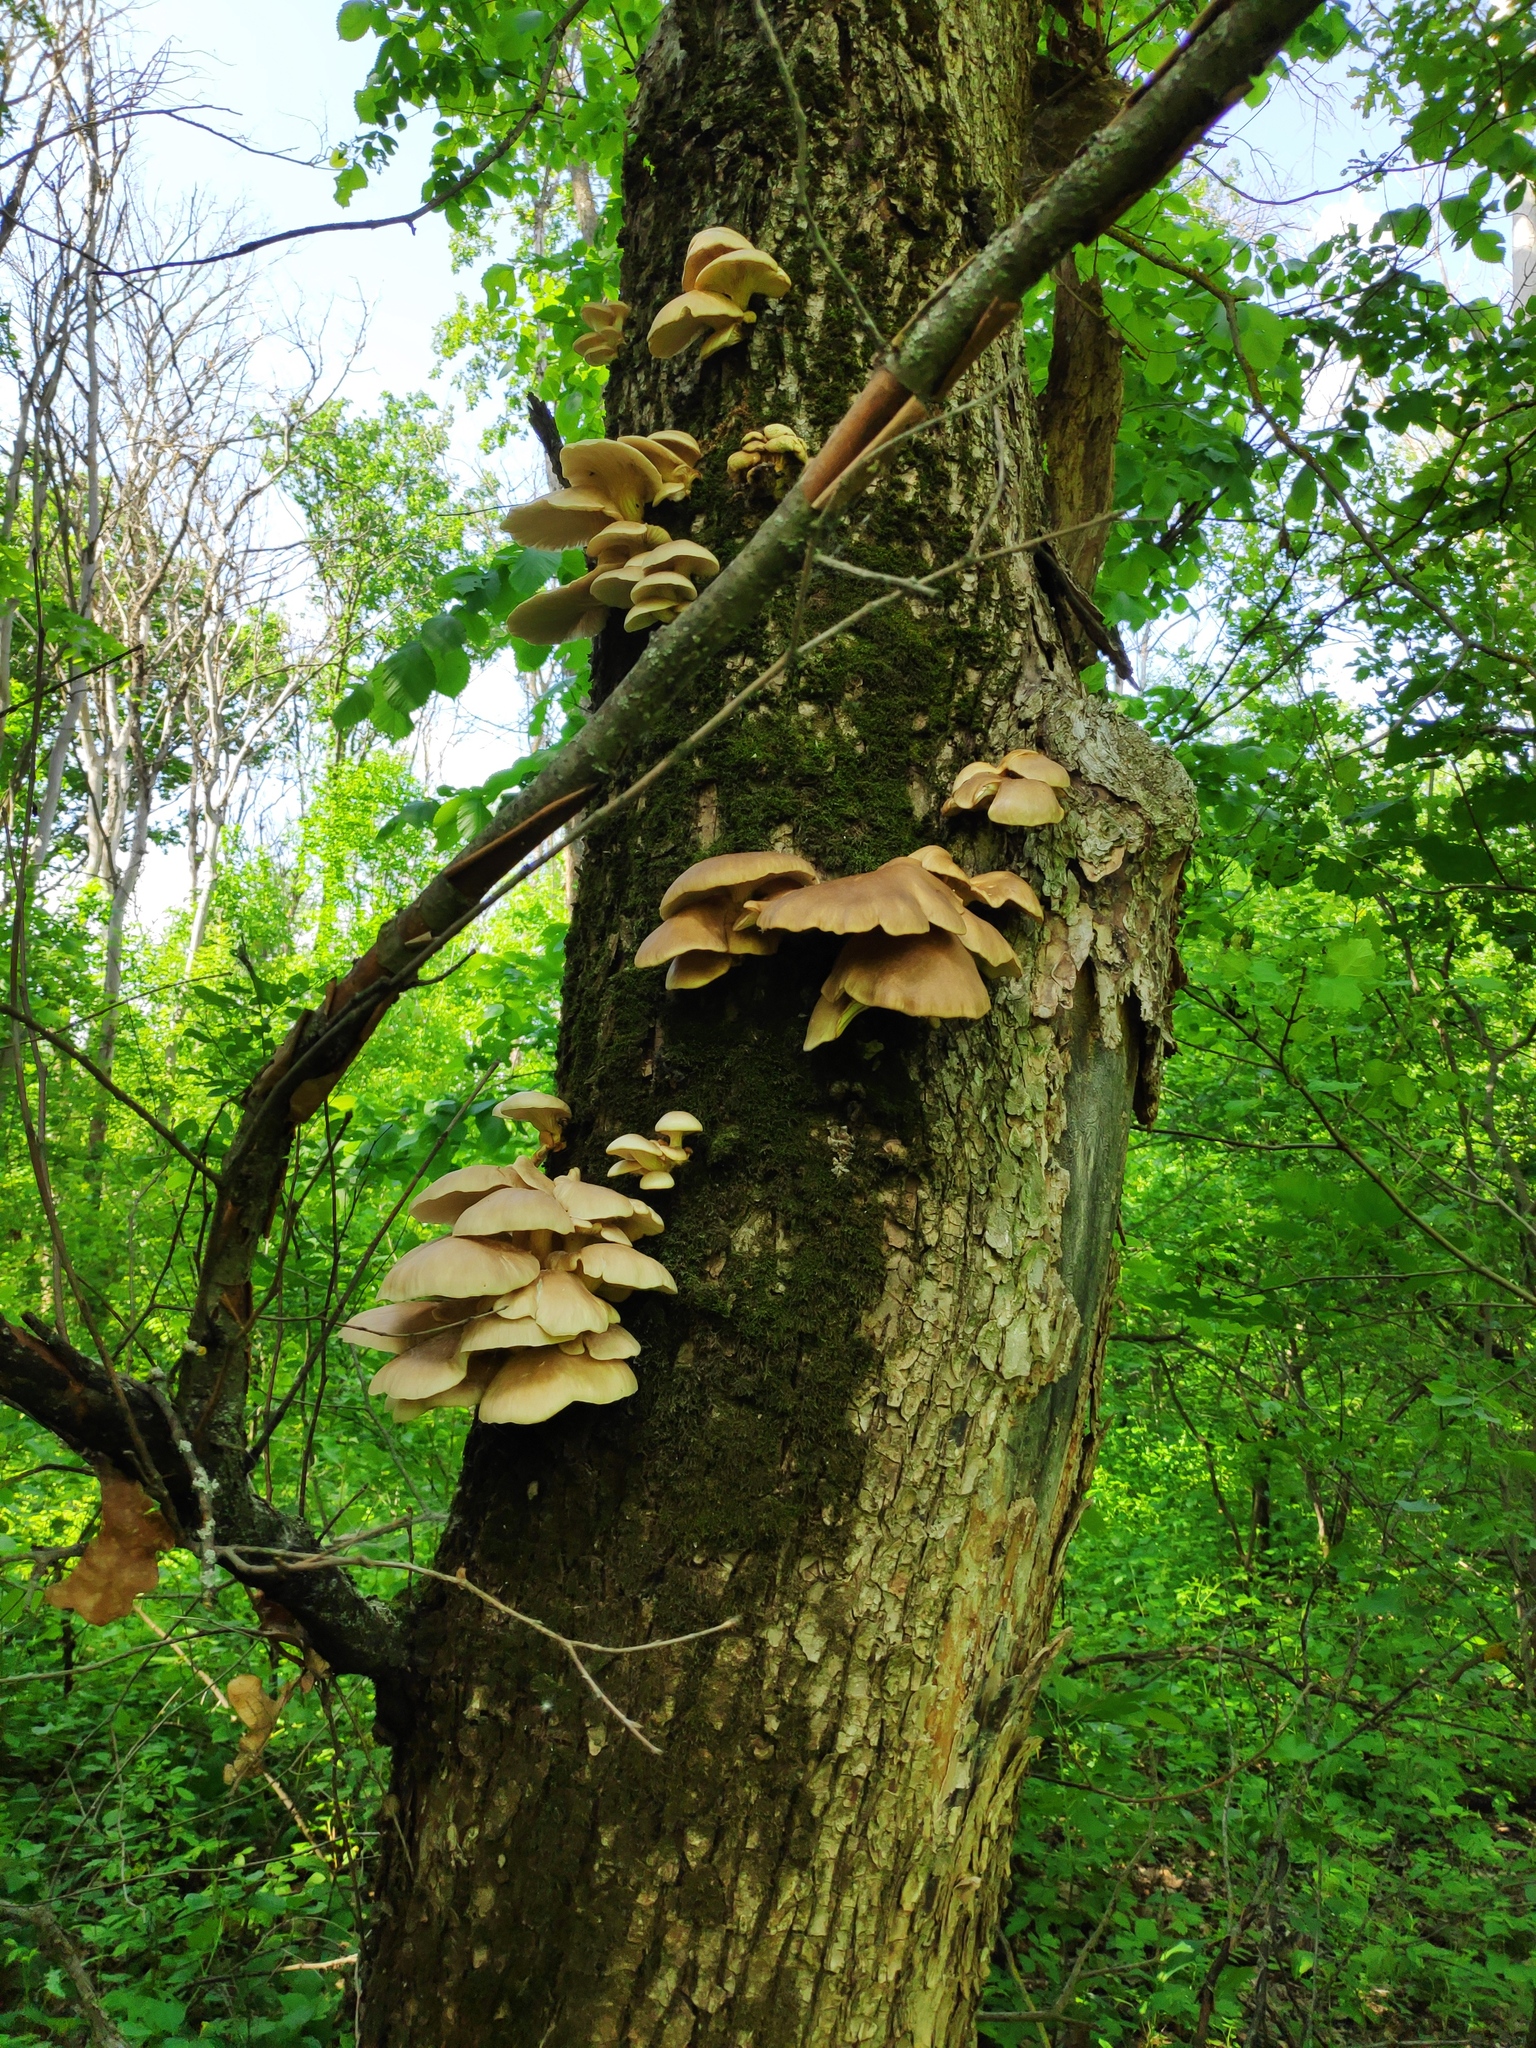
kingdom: Fungi
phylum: Basidiomycota
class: Agaricomycetes
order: Agaricales
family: Pleurotaceae
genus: Pleurotus
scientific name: Pleurotus ostreatus
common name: Oyster mushroom
